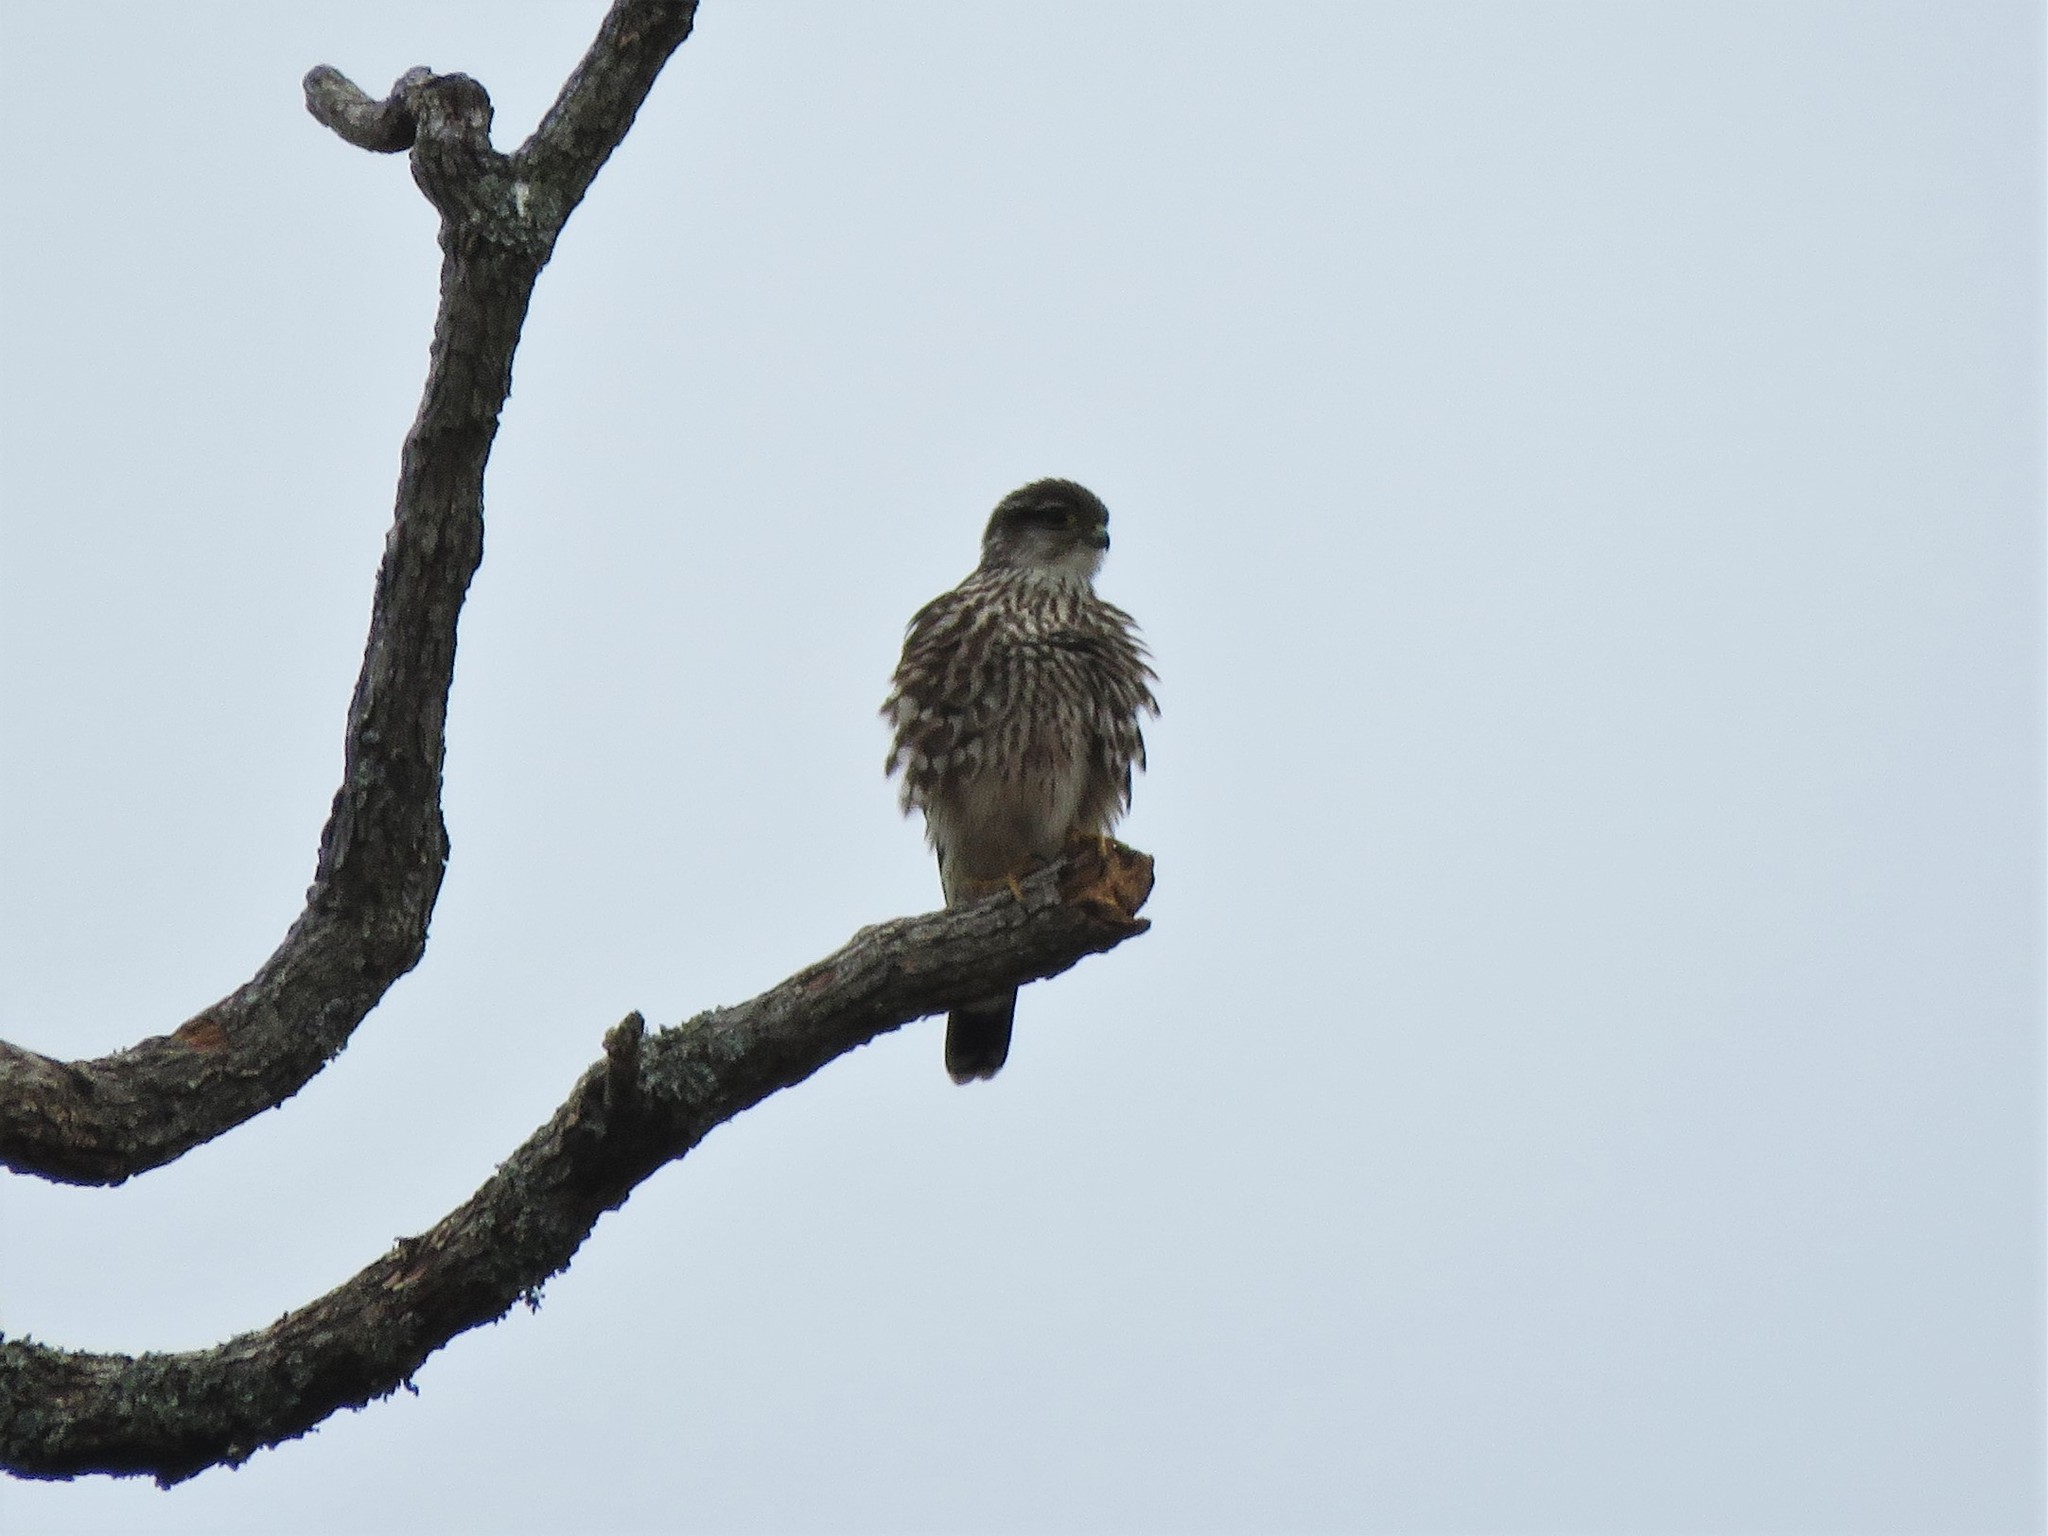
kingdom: Animalia
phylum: Chordata
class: Aves
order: Falconiformes
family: Falconidae
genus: Falco
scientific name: Falco columbarius
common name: Merlin
